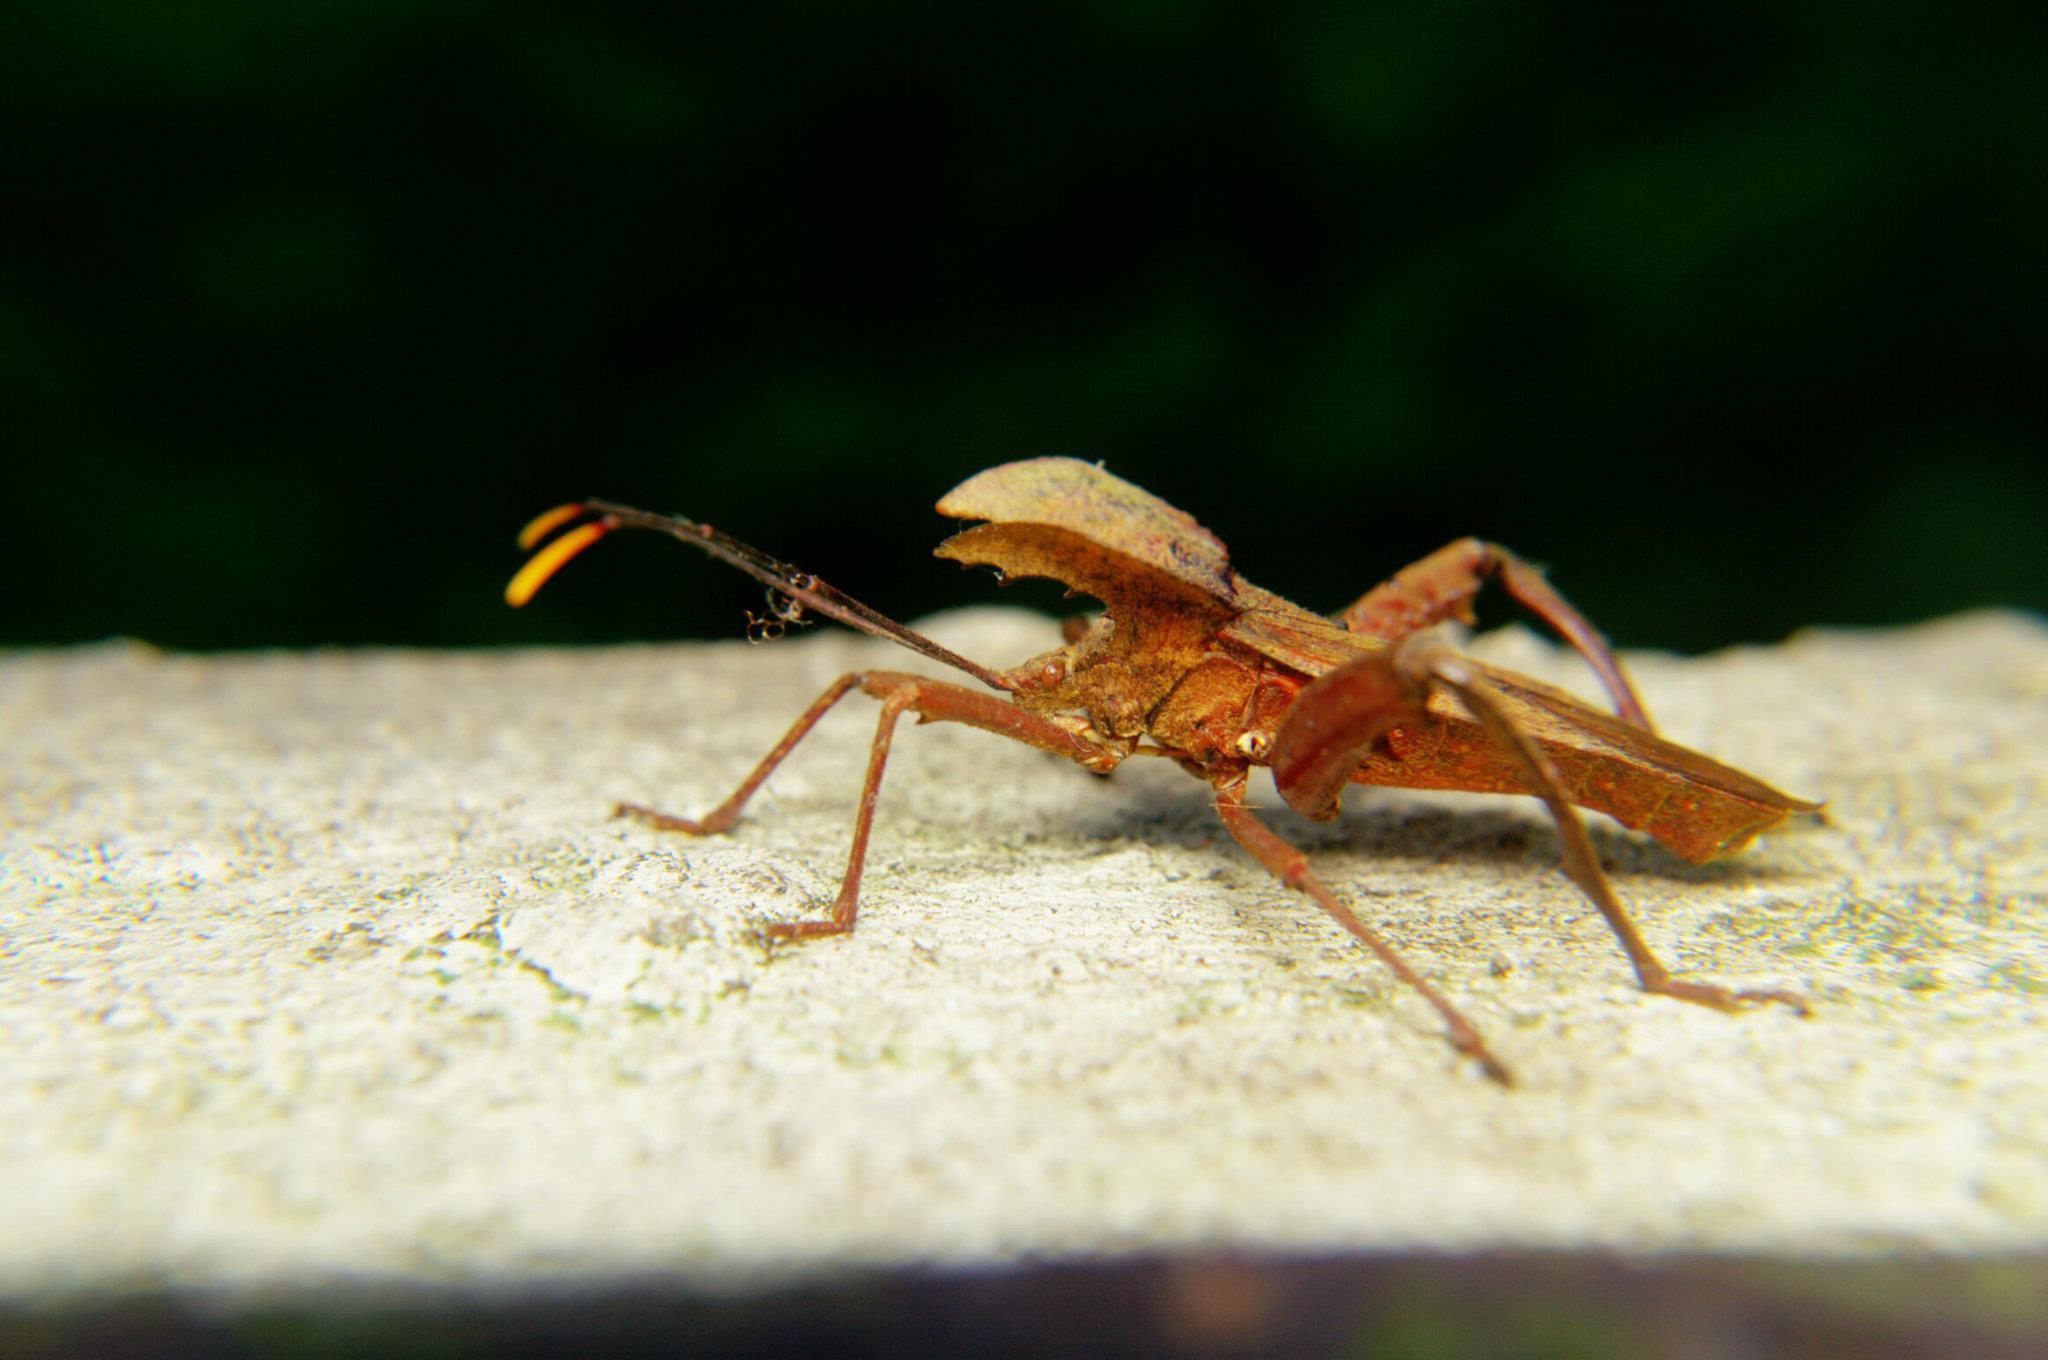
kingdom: Animalia
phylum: Arthropoda
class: Insecta
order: Hemiptera
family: Coreidae
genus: Molipteryx
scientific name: Molipteryx hardwickii
